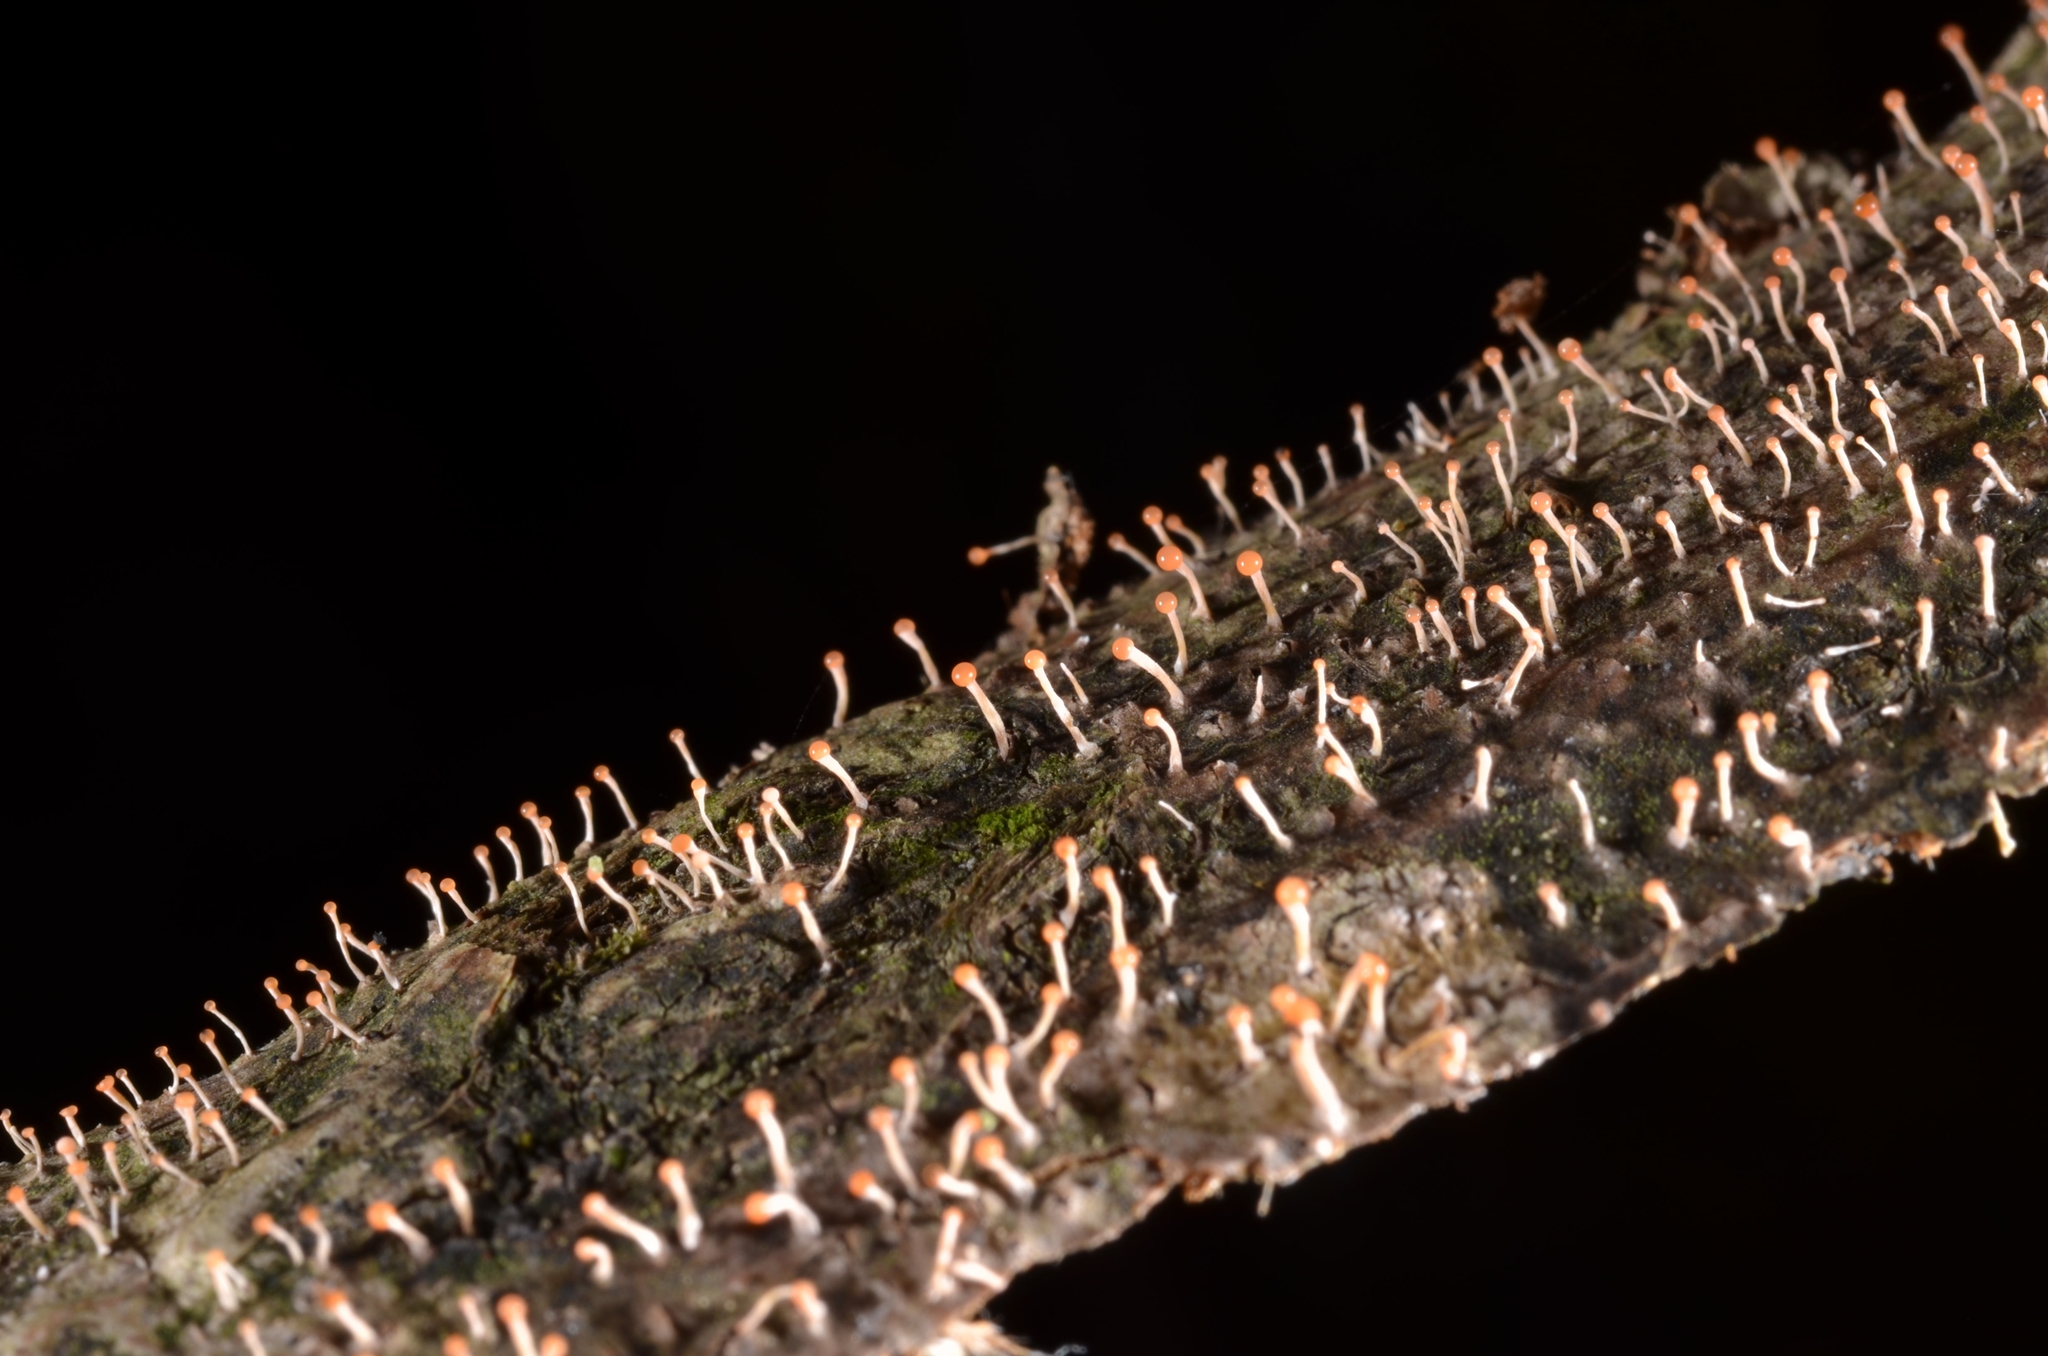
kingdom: Fungi
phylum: Ascomycota
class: Sordariomycetes
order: Hypocreales
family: Nectriaceae
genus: Nectria
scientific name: Nectria pseudotrichia
